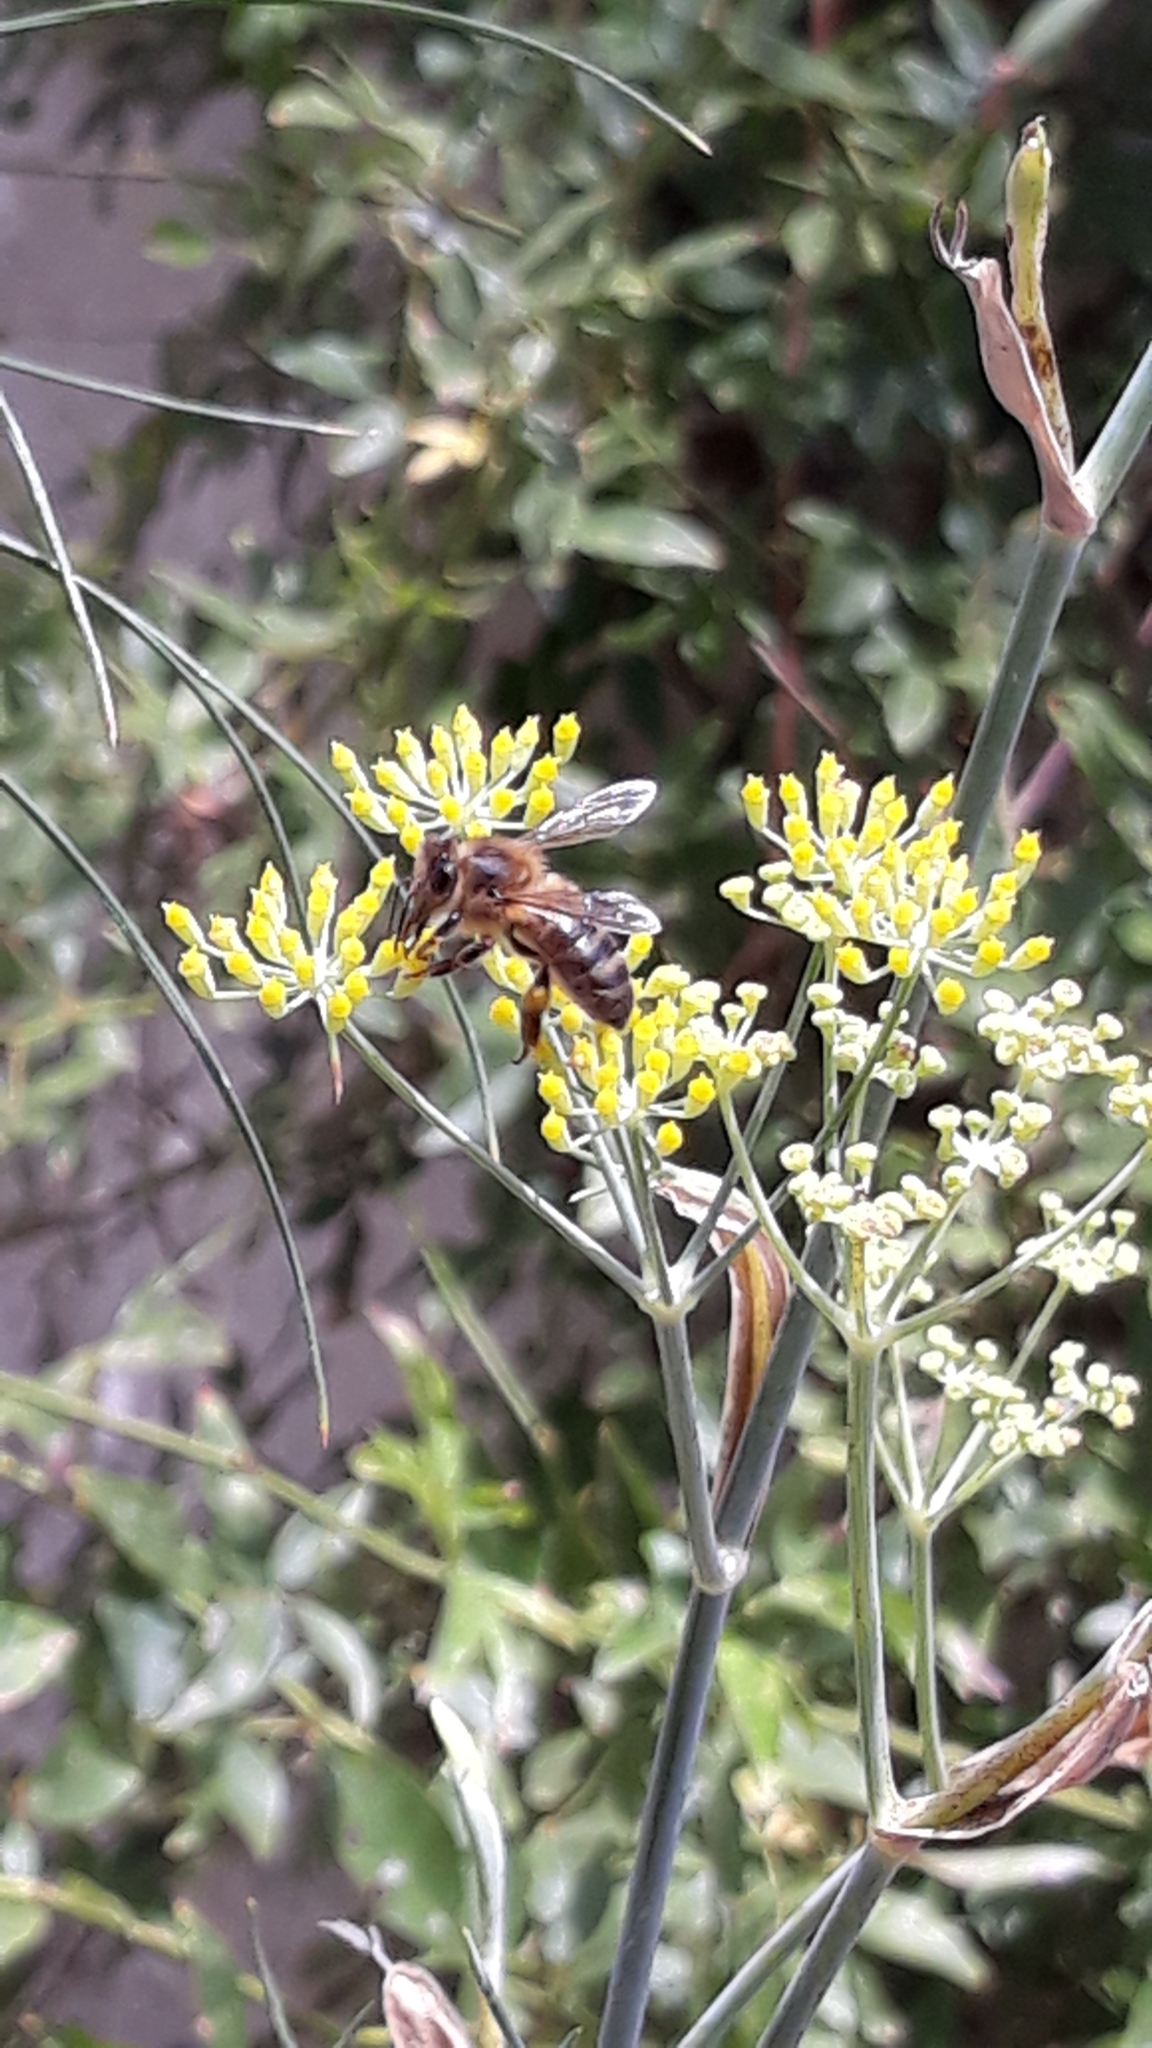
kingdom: Animalia
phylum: Arthropoda
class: Insecta
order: Hymenoptera
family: Apidae
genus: Apis
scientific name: Apis mellifera
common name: Honey bee
